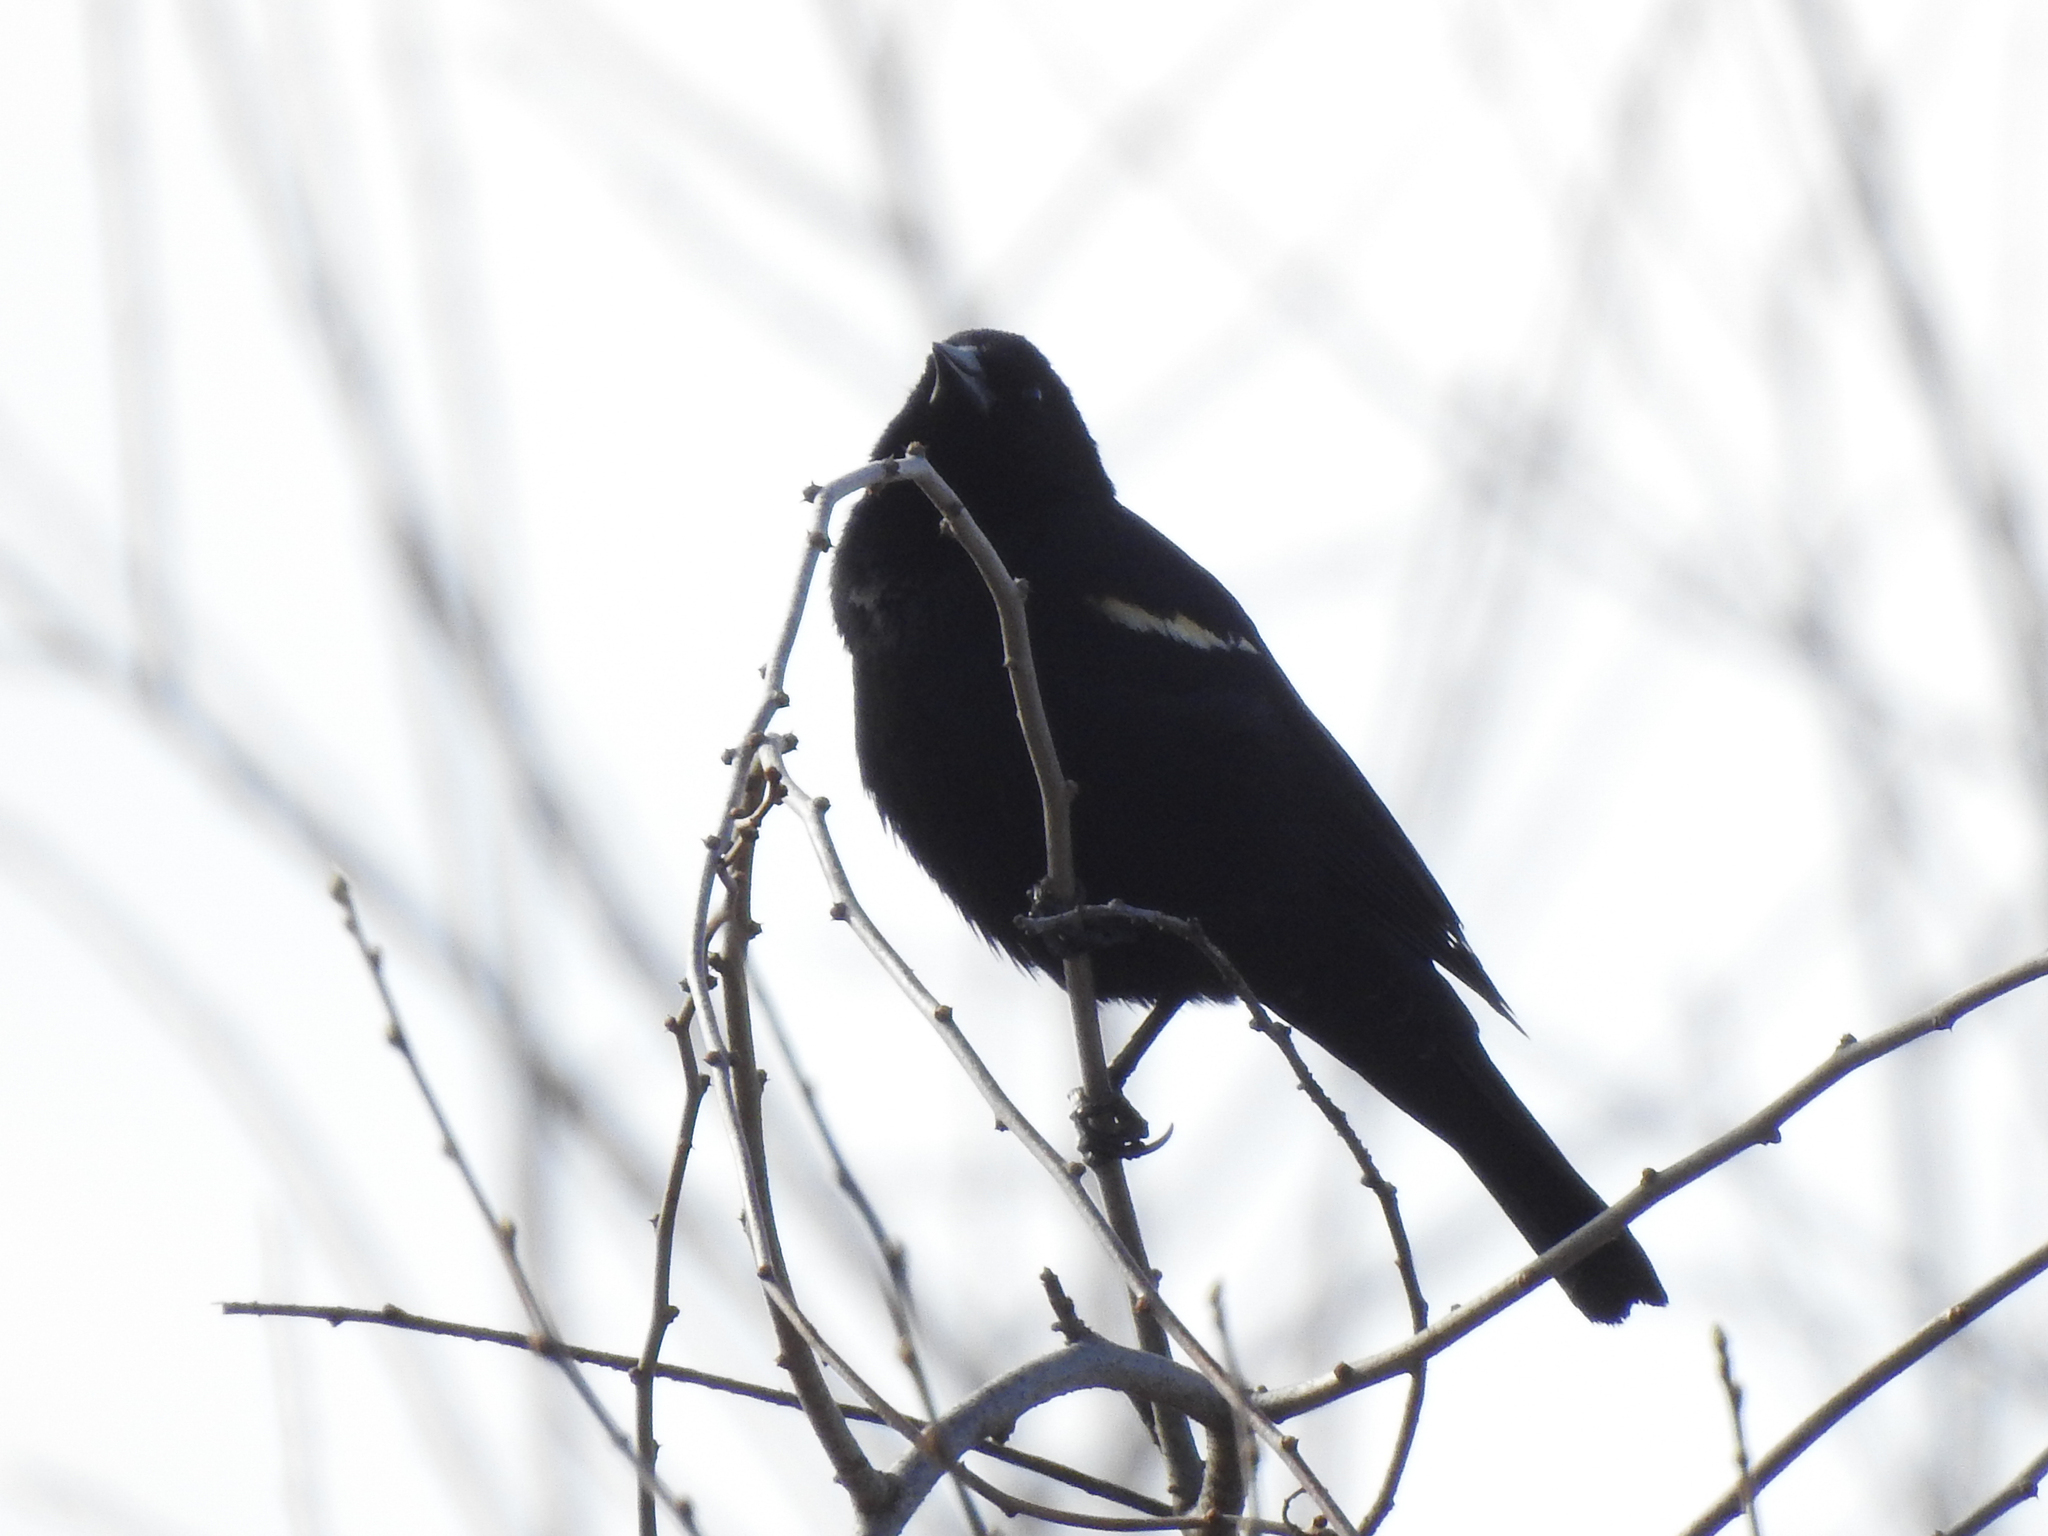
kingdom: Animalia
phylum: Chordata
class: Aves
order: Passeriformes
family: Icteridae
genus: Agelaius
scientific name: Agelaius phoeniceus
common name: Red-winged blackbird
